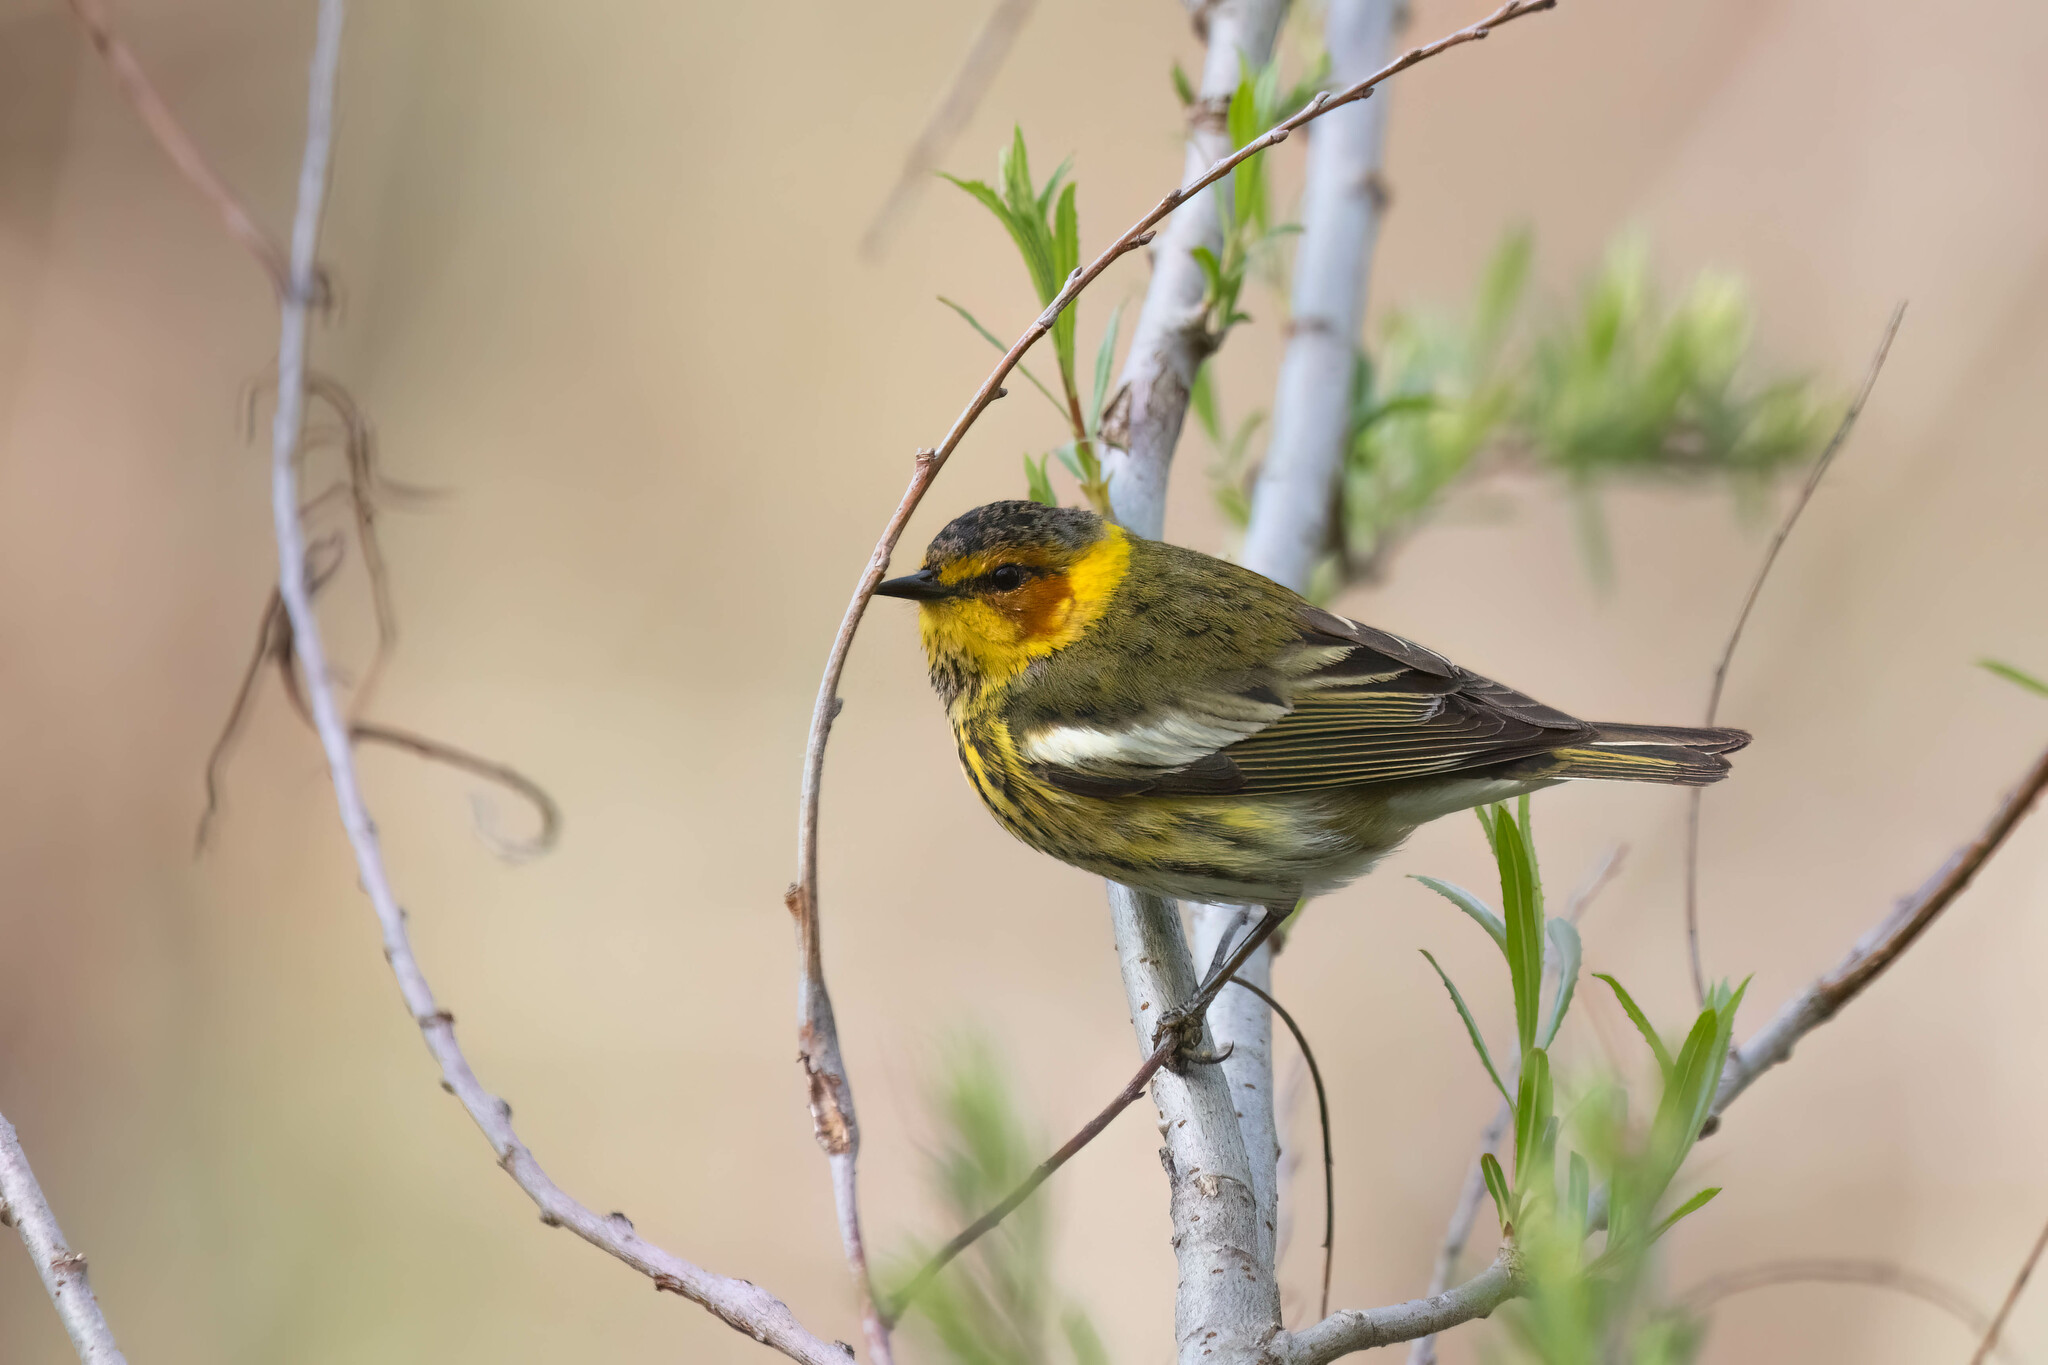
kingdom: Animalia
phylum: Chordata
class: Aves
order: Passeriformes
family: Parulidae
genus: Setophaga
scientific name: Setophaga tigrina
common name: Cape may warbler
